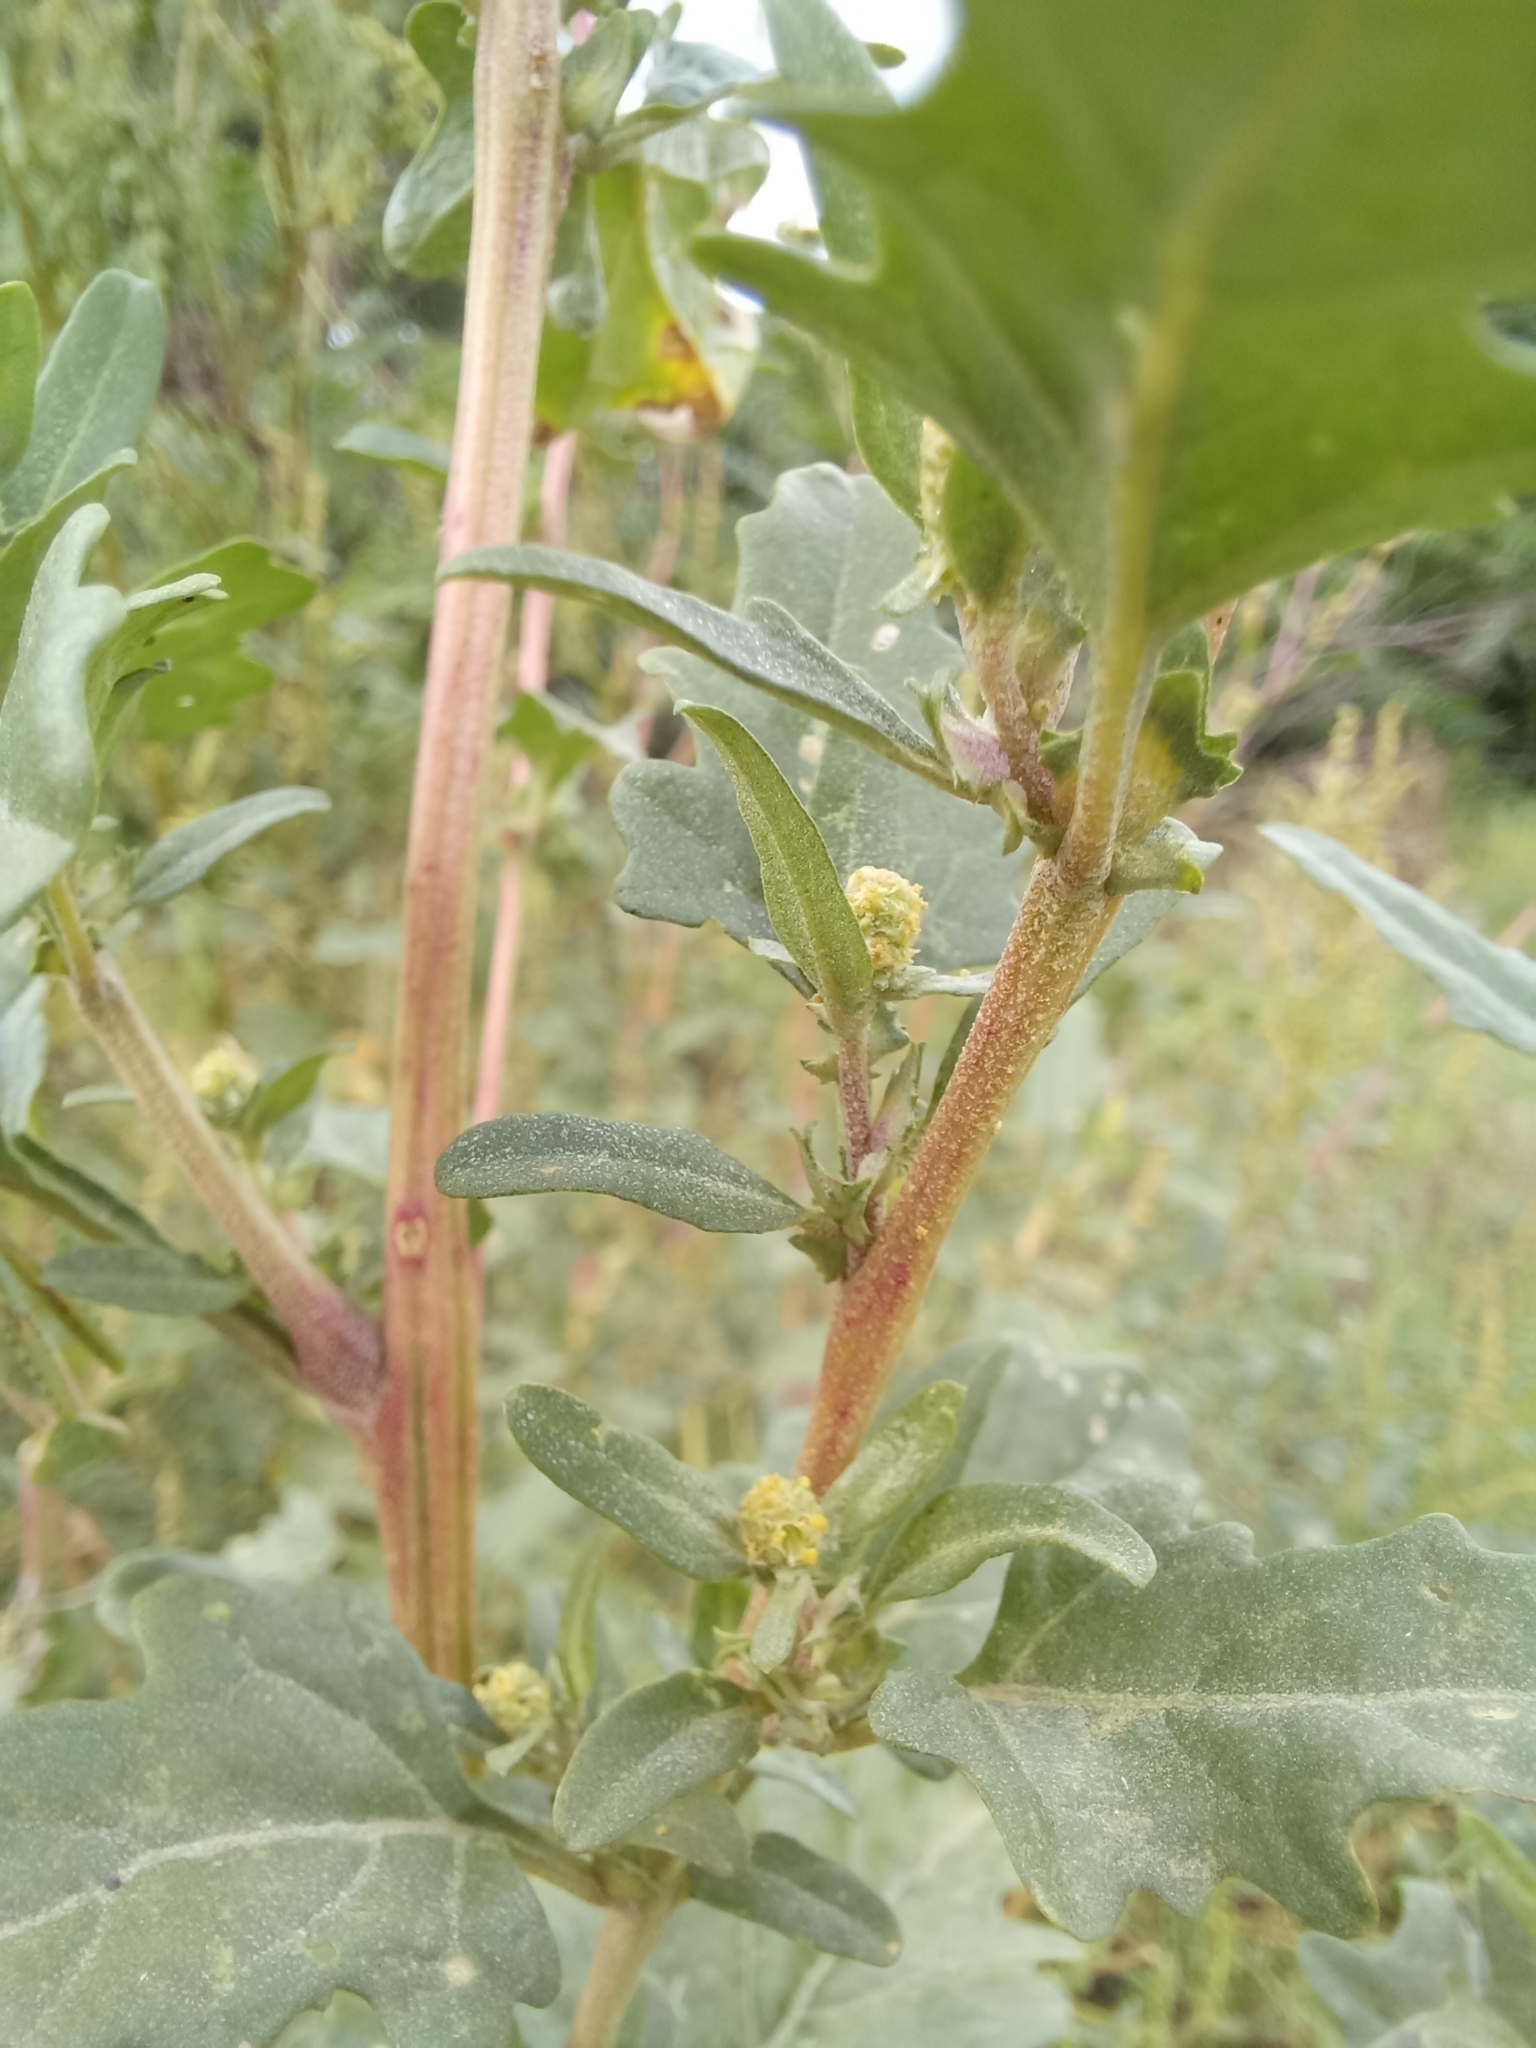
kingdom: Plantae
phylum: Tracheophyta
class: Magnoliopsida
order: Caryophyllales
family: Amaranthaceae
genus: Atriplex
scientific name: Atriplex tatarica
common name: Tatarian orache
